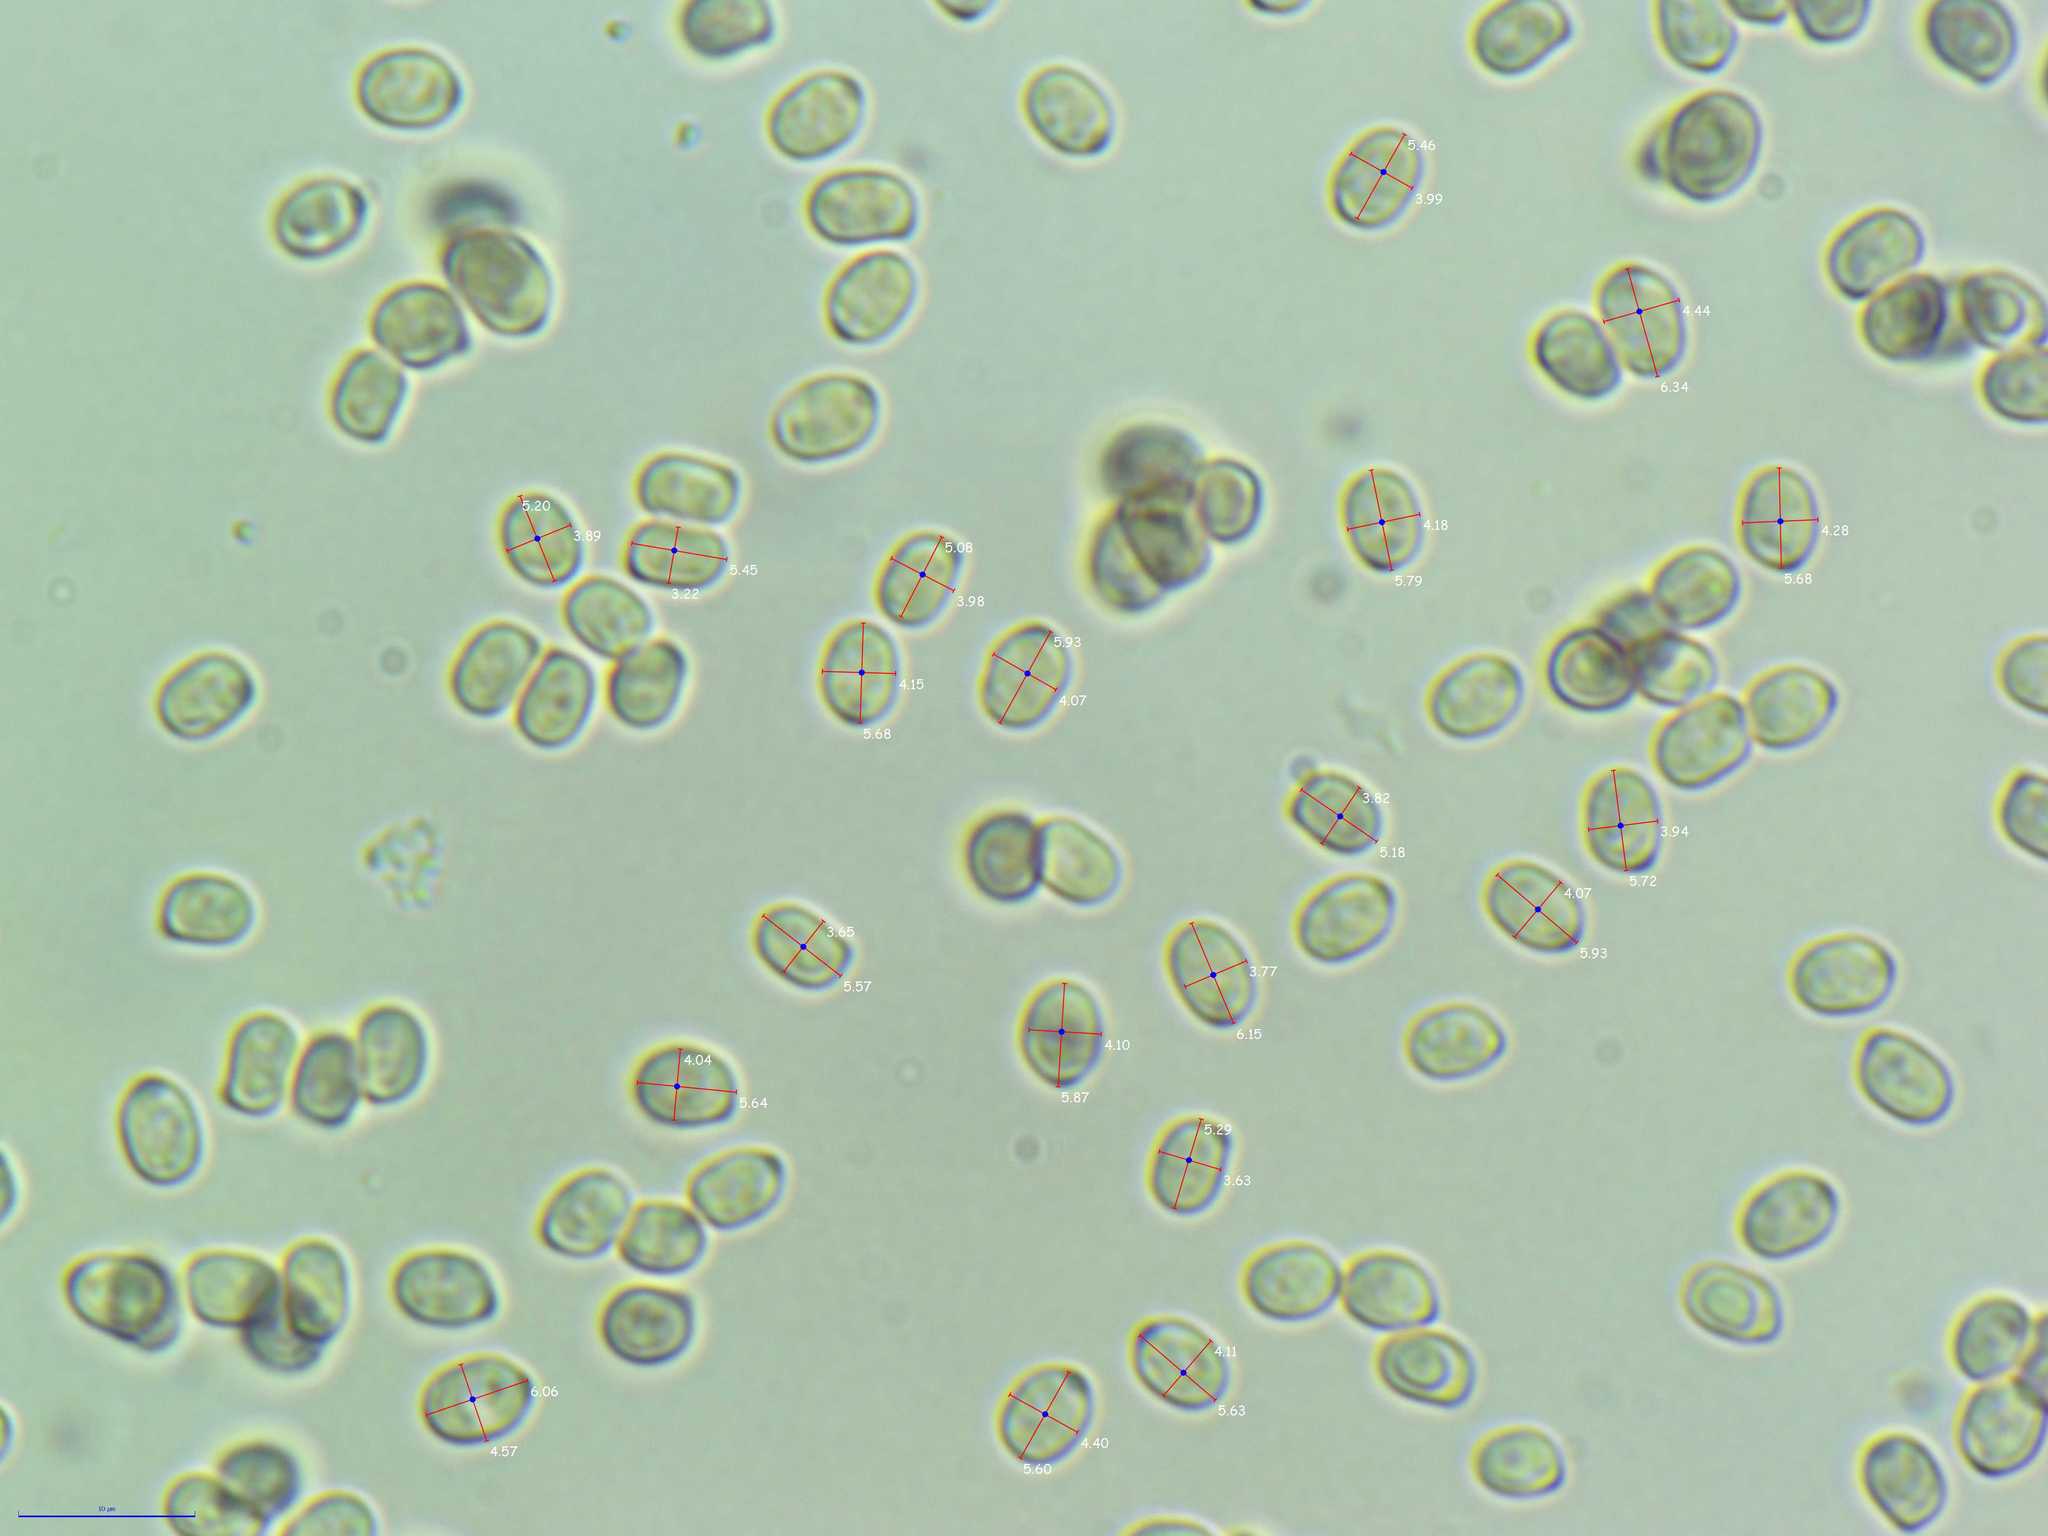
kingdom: Fungi
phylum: Basidiomycota
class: Agaricomycetes
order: Agaricales
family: Pluteaceae
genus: Pluteus
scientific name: Pluteus petasatus
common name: Scaly shield
